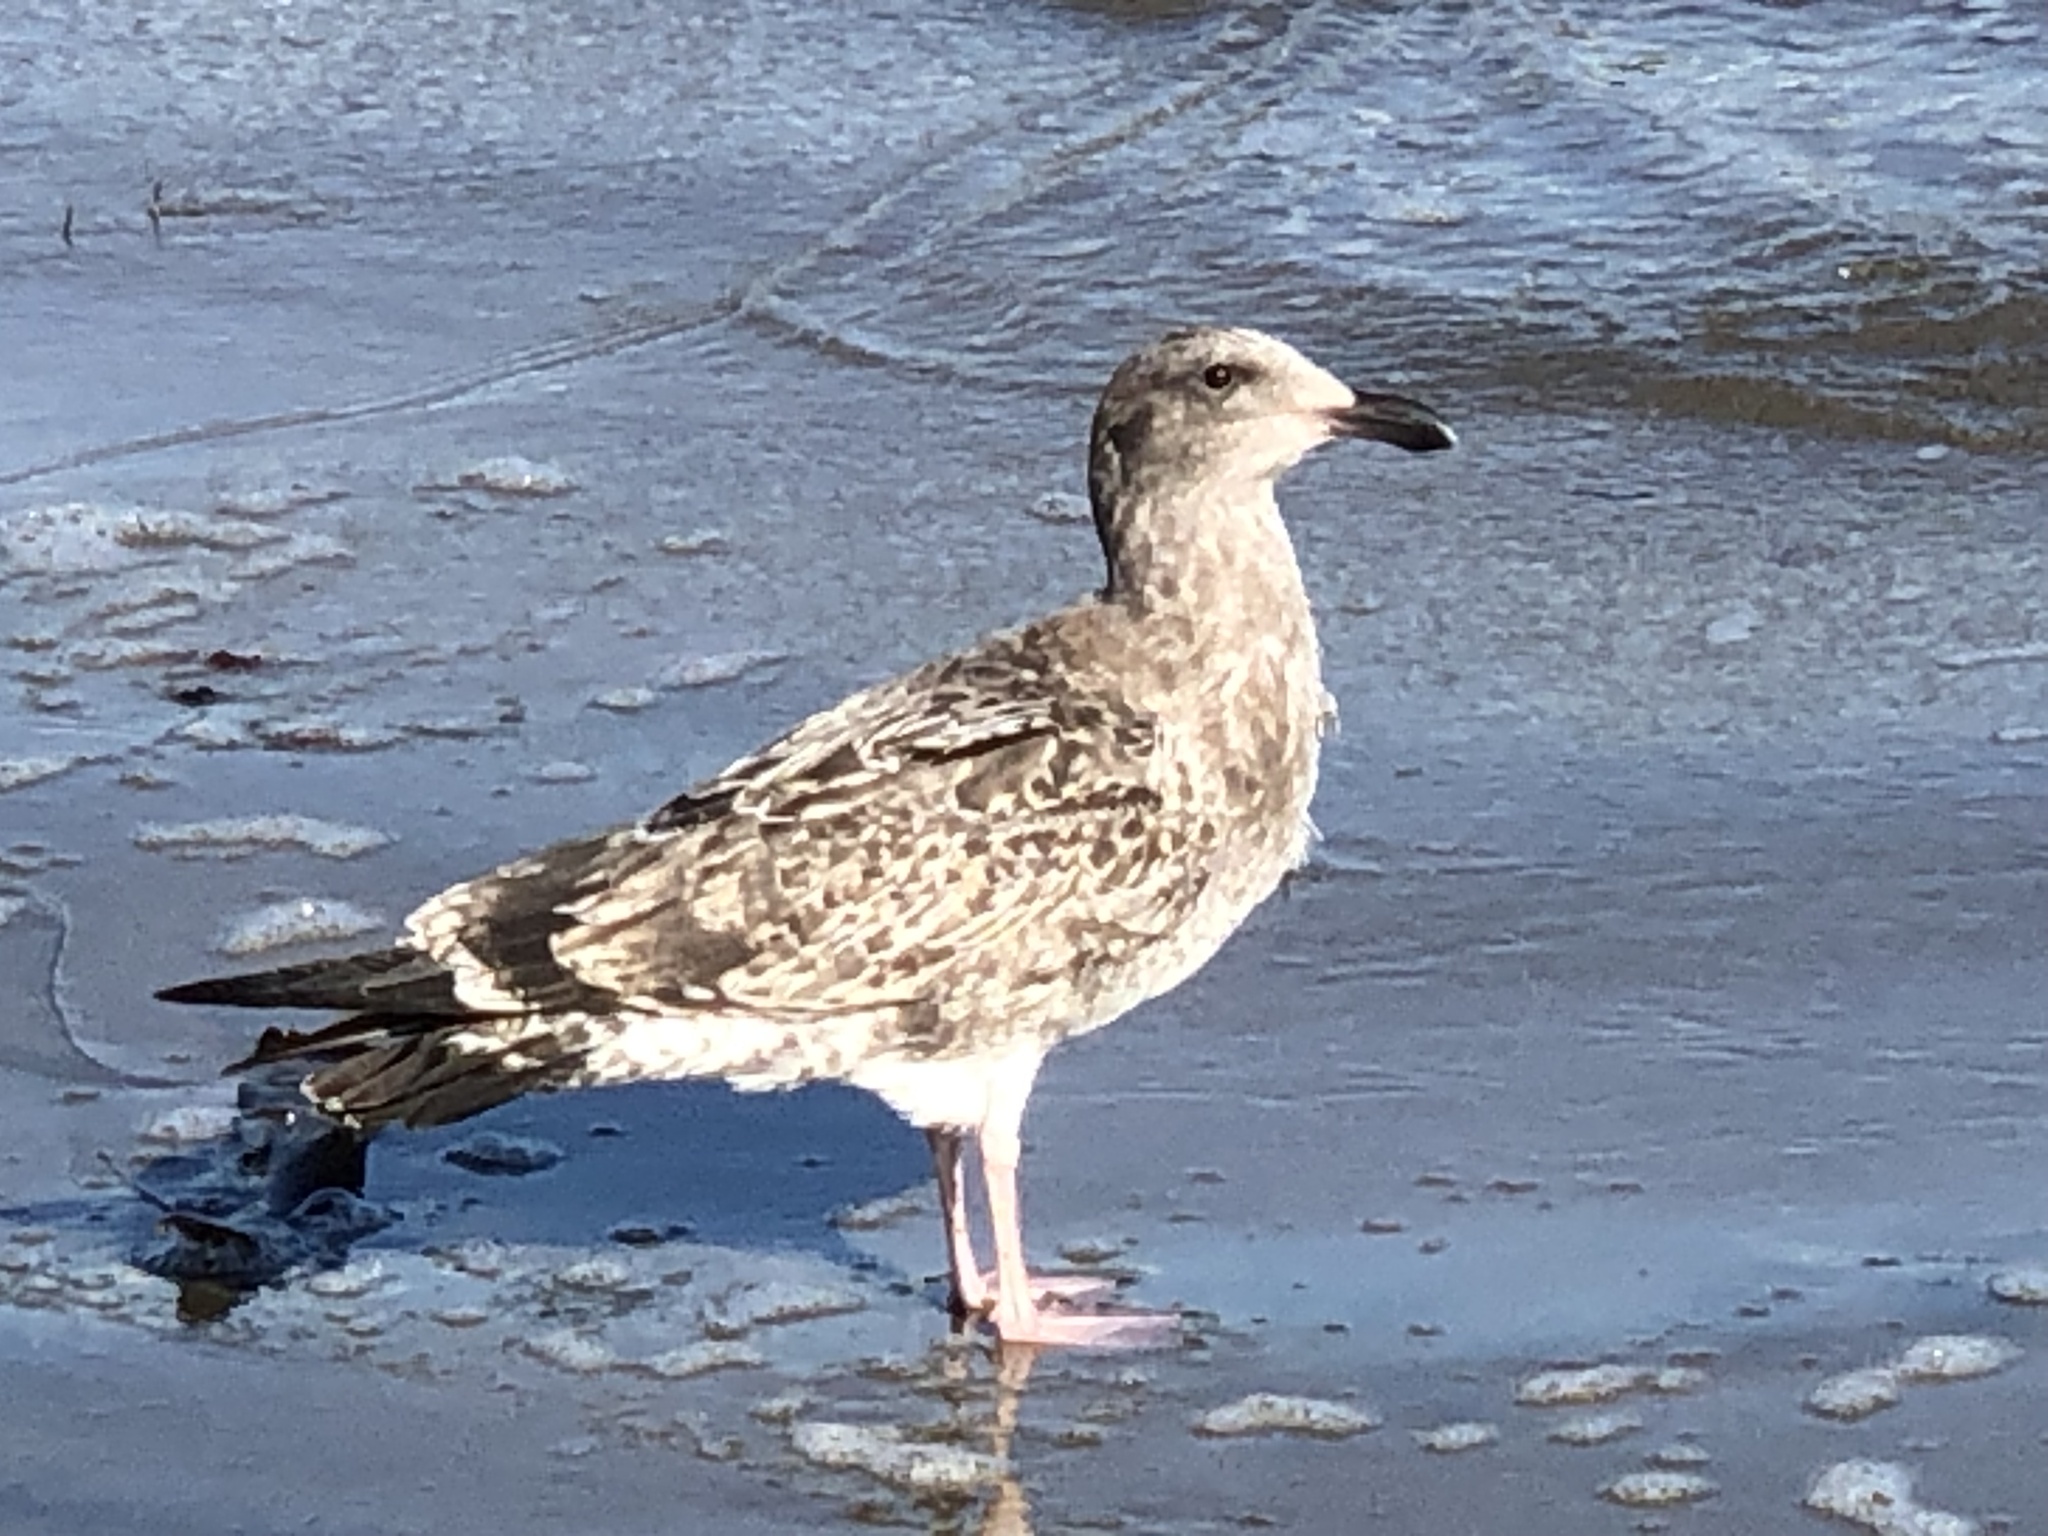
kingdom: Animalia
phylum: Chordata
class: Aves
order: Charadriiformes
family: Laridae
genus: Larus
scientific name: Larus occidentalis
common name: Western gull
